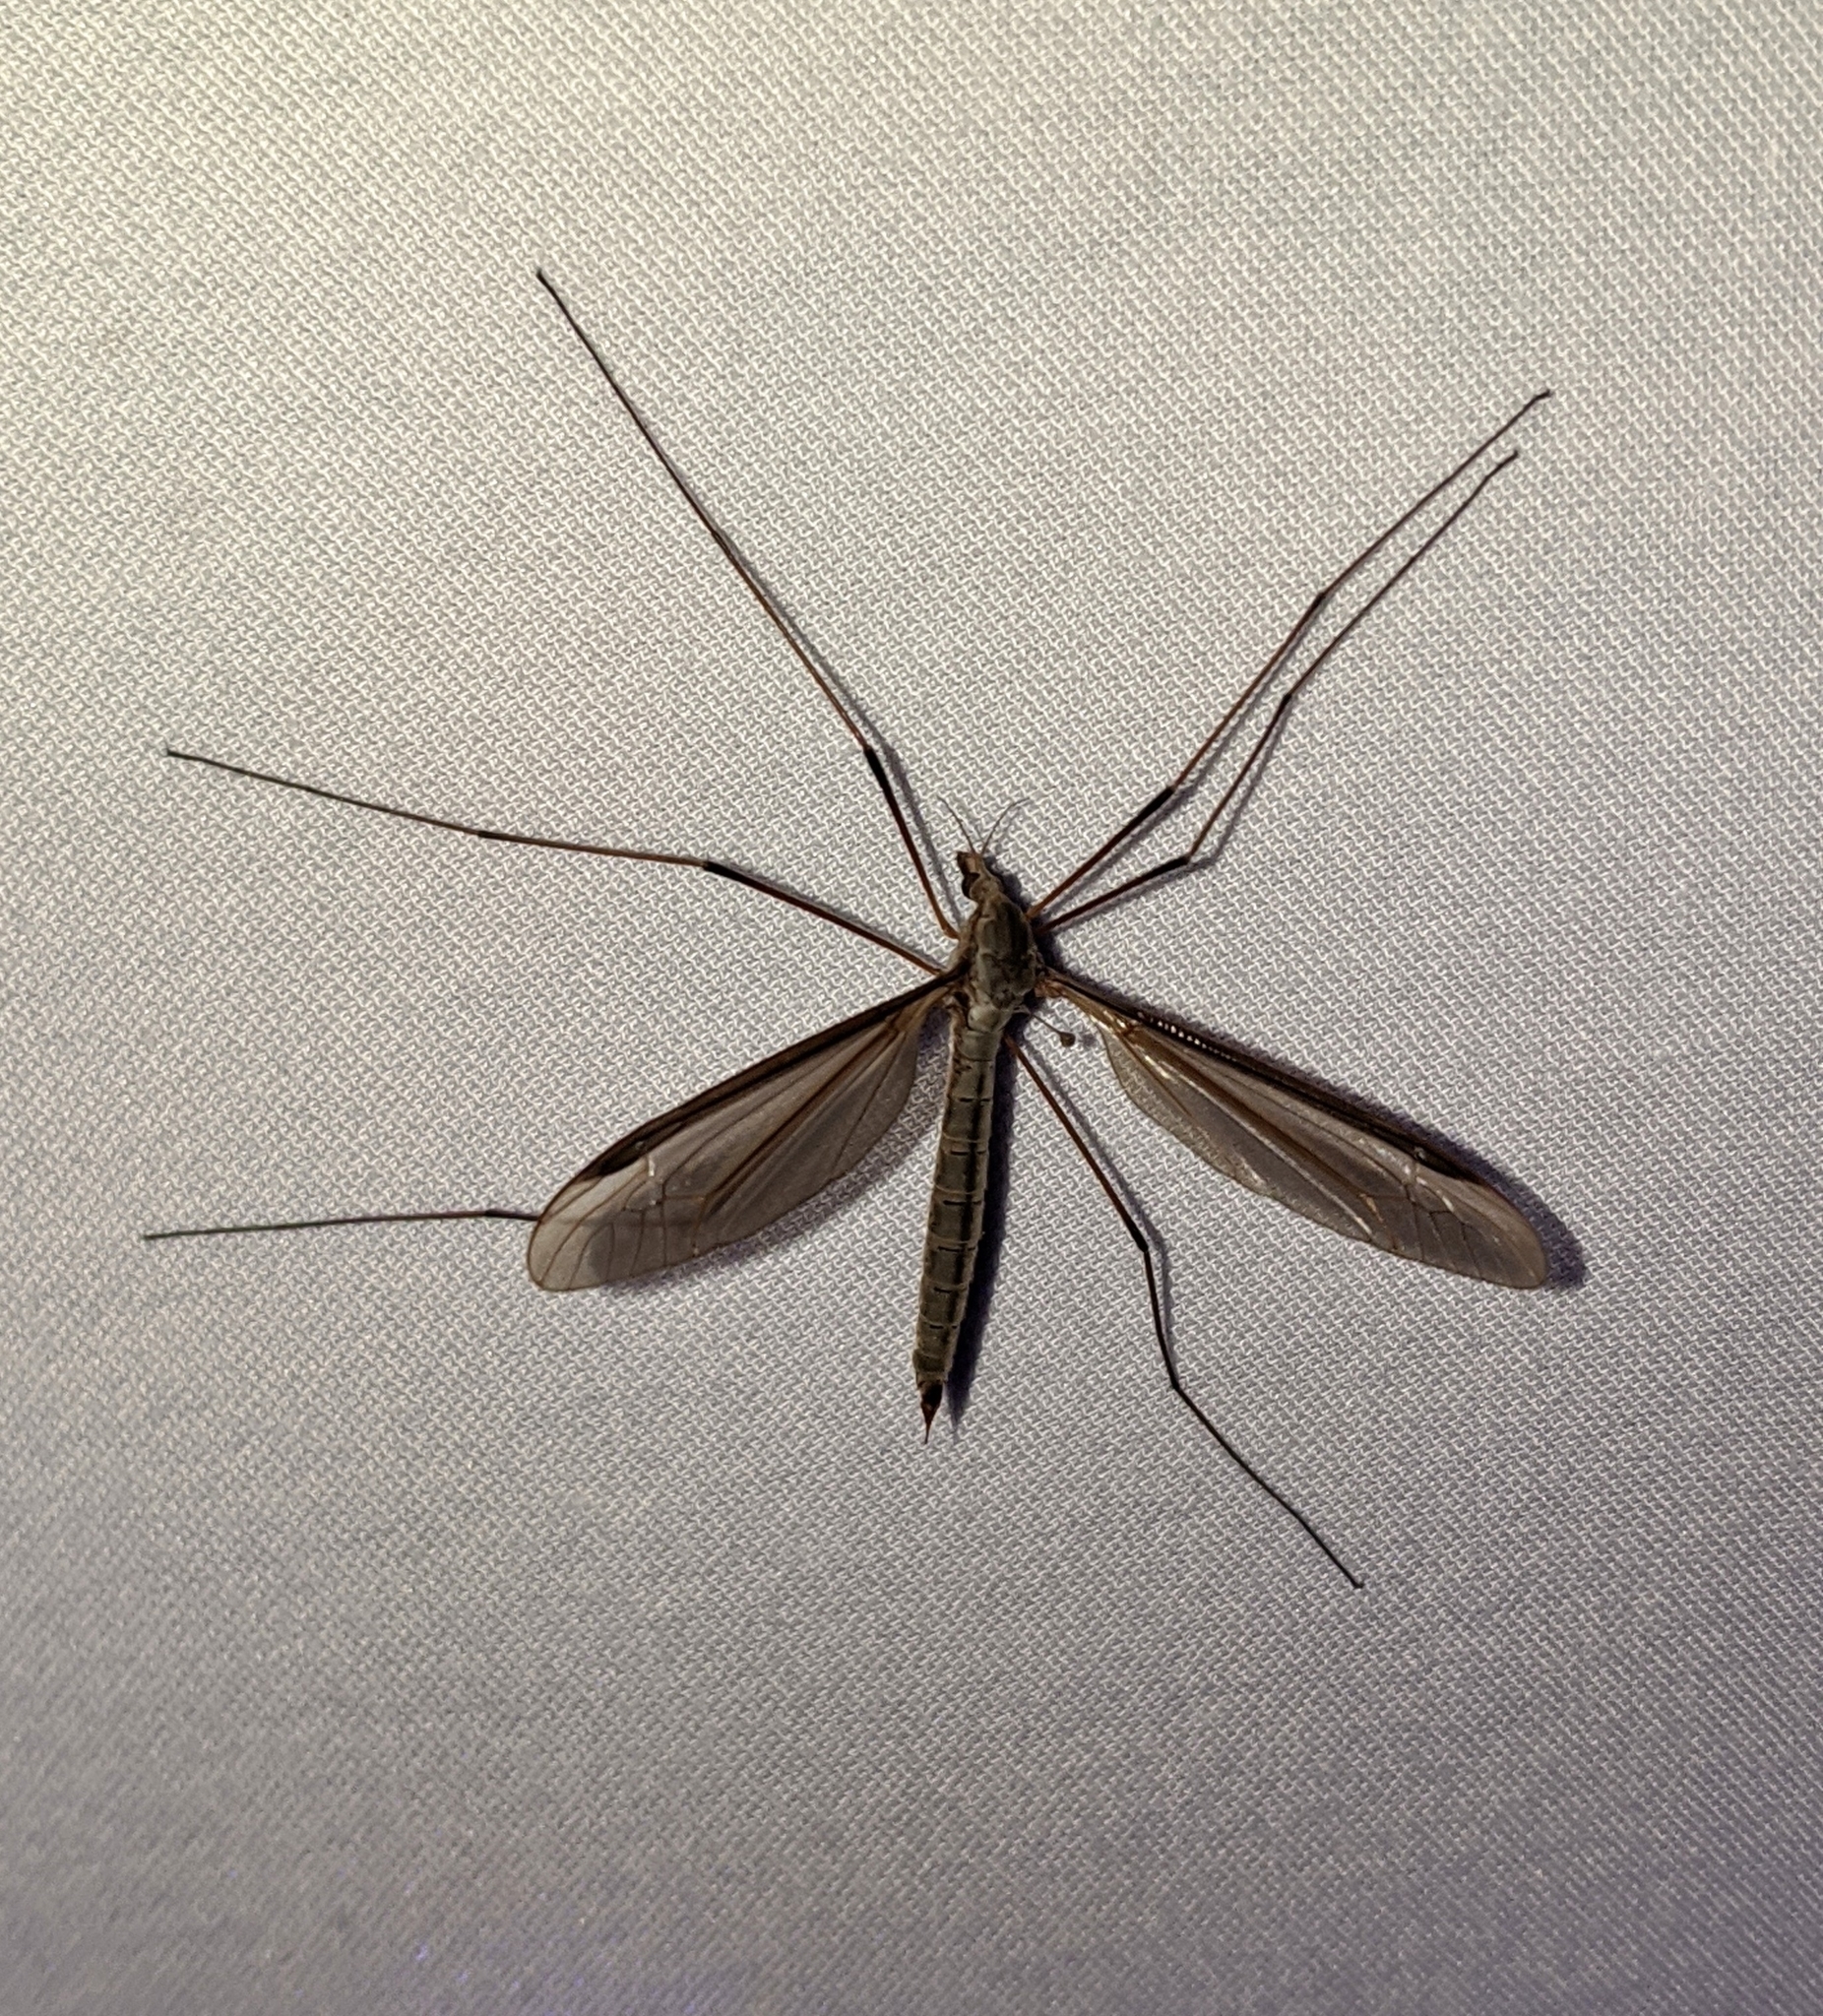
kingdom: Animalia
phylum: Arthropoda
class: Insecta
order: Diptera
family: Tipulidae
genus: Tipula
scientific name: Tipula oleracea
